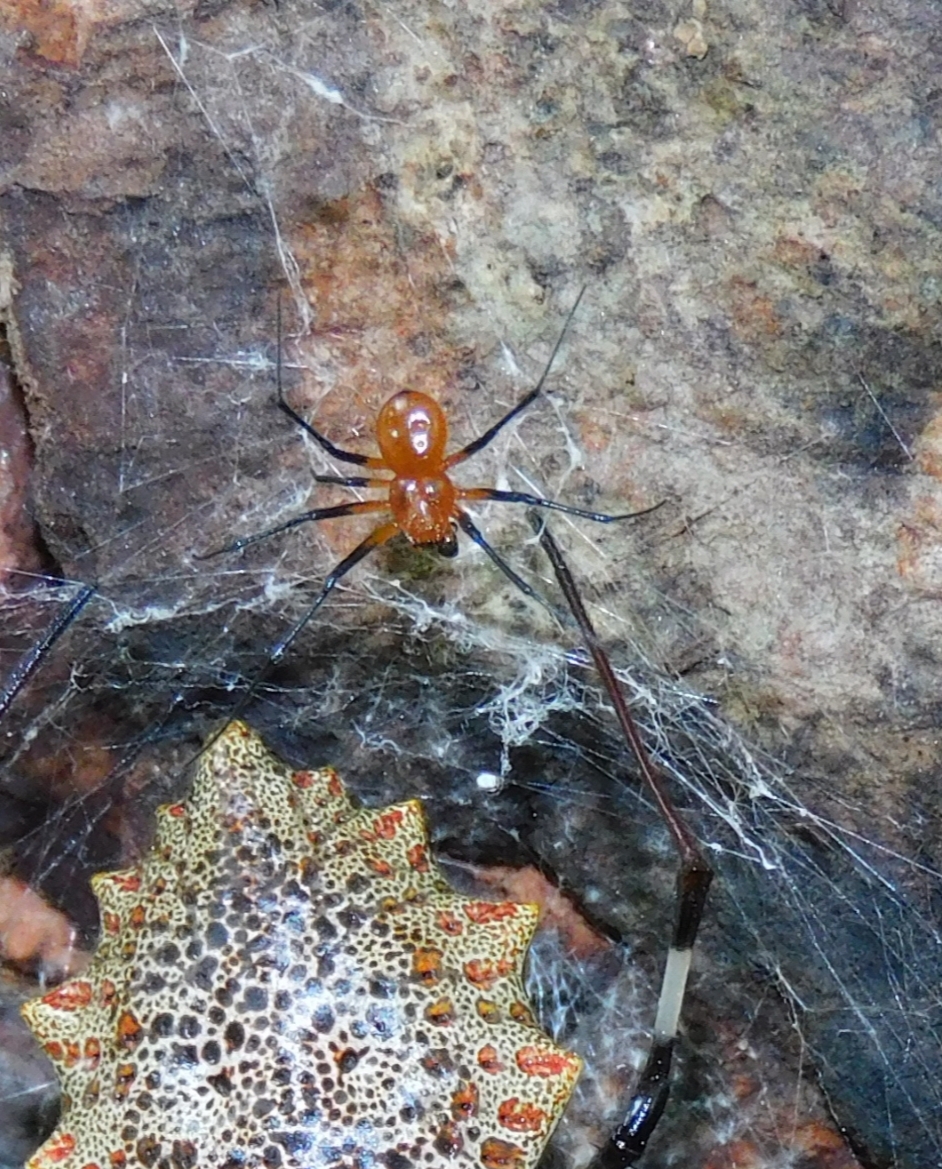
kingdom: Animalia
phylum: Arthropoda
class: Arachnida
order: Araneae
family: Araneidae
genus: Herennia
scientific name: Herennia multipuncta
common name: Spotted coin spider
